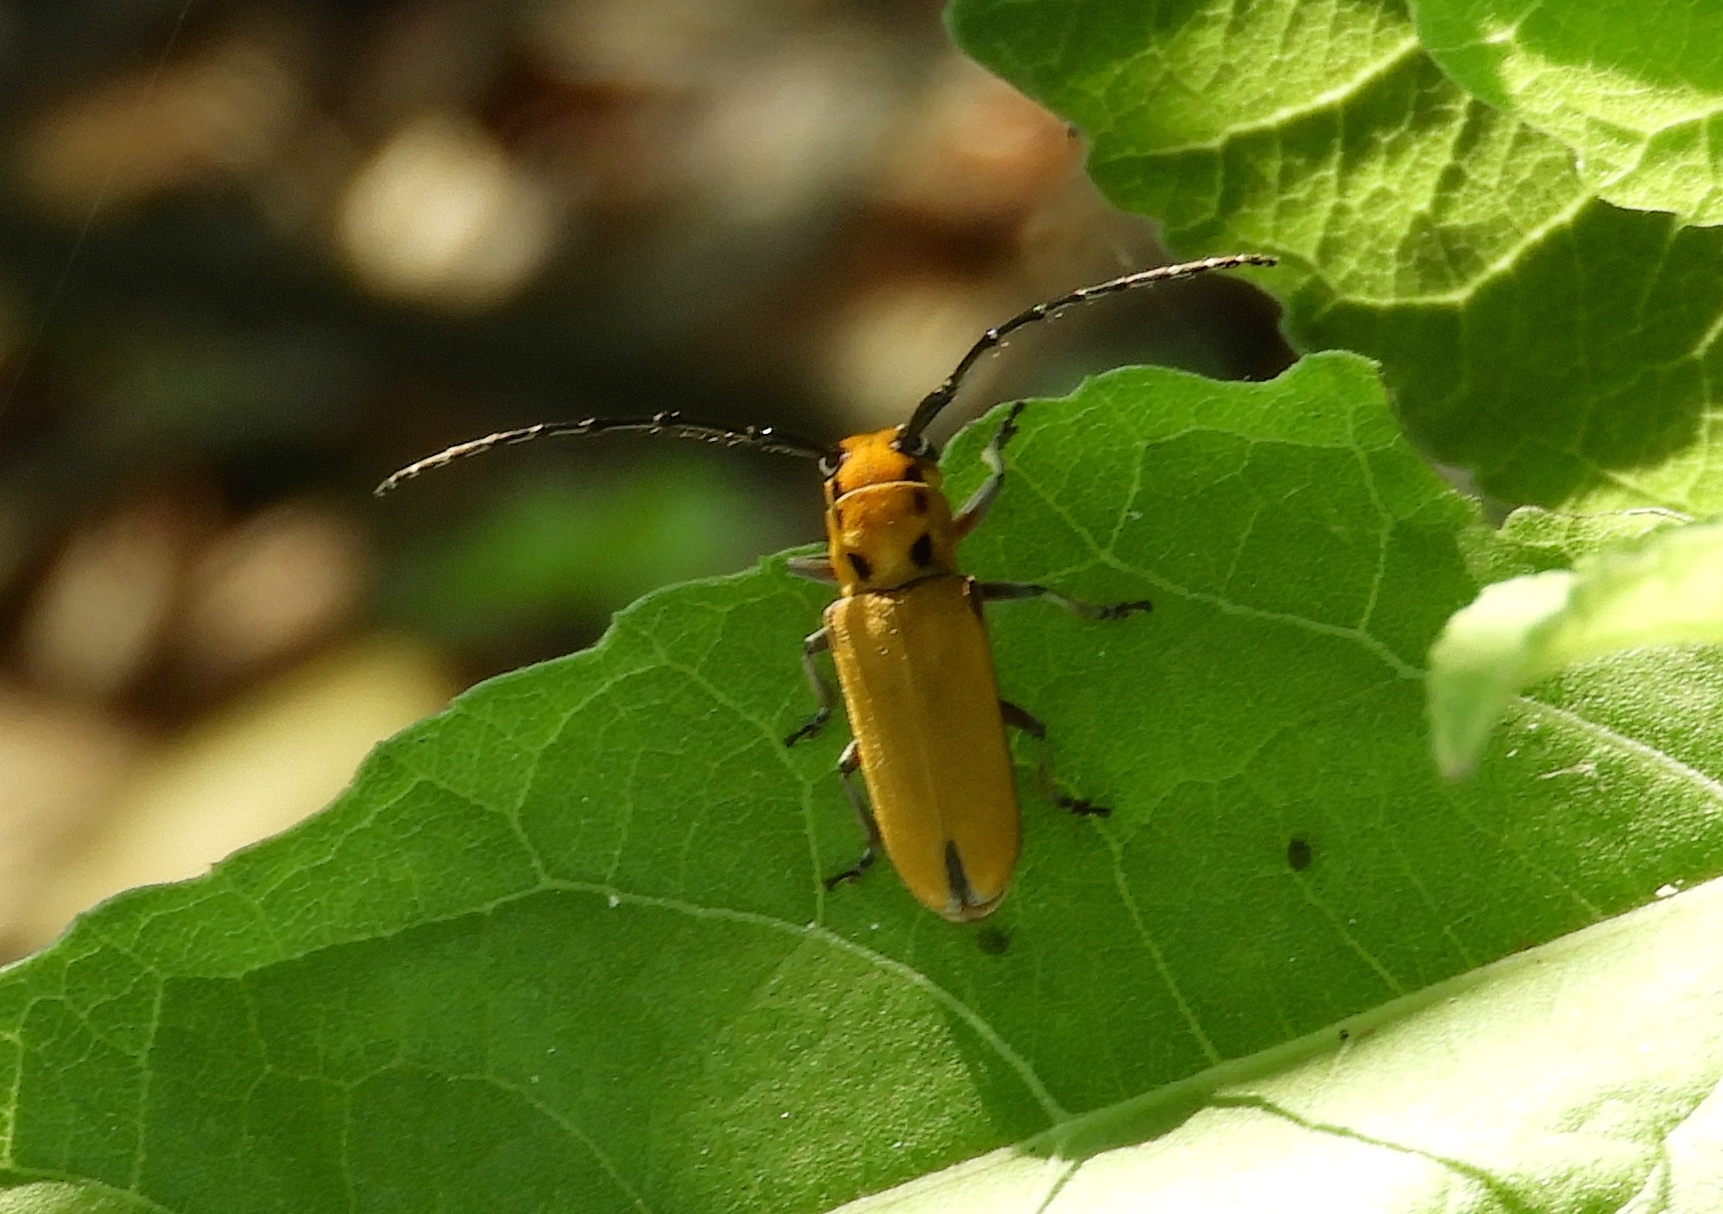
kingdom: Animalia
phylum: Arthropoda
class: Insecta
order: Coleoptera
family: Cerambycidae
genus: Essostrutha
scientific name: Essostrutha laeta
